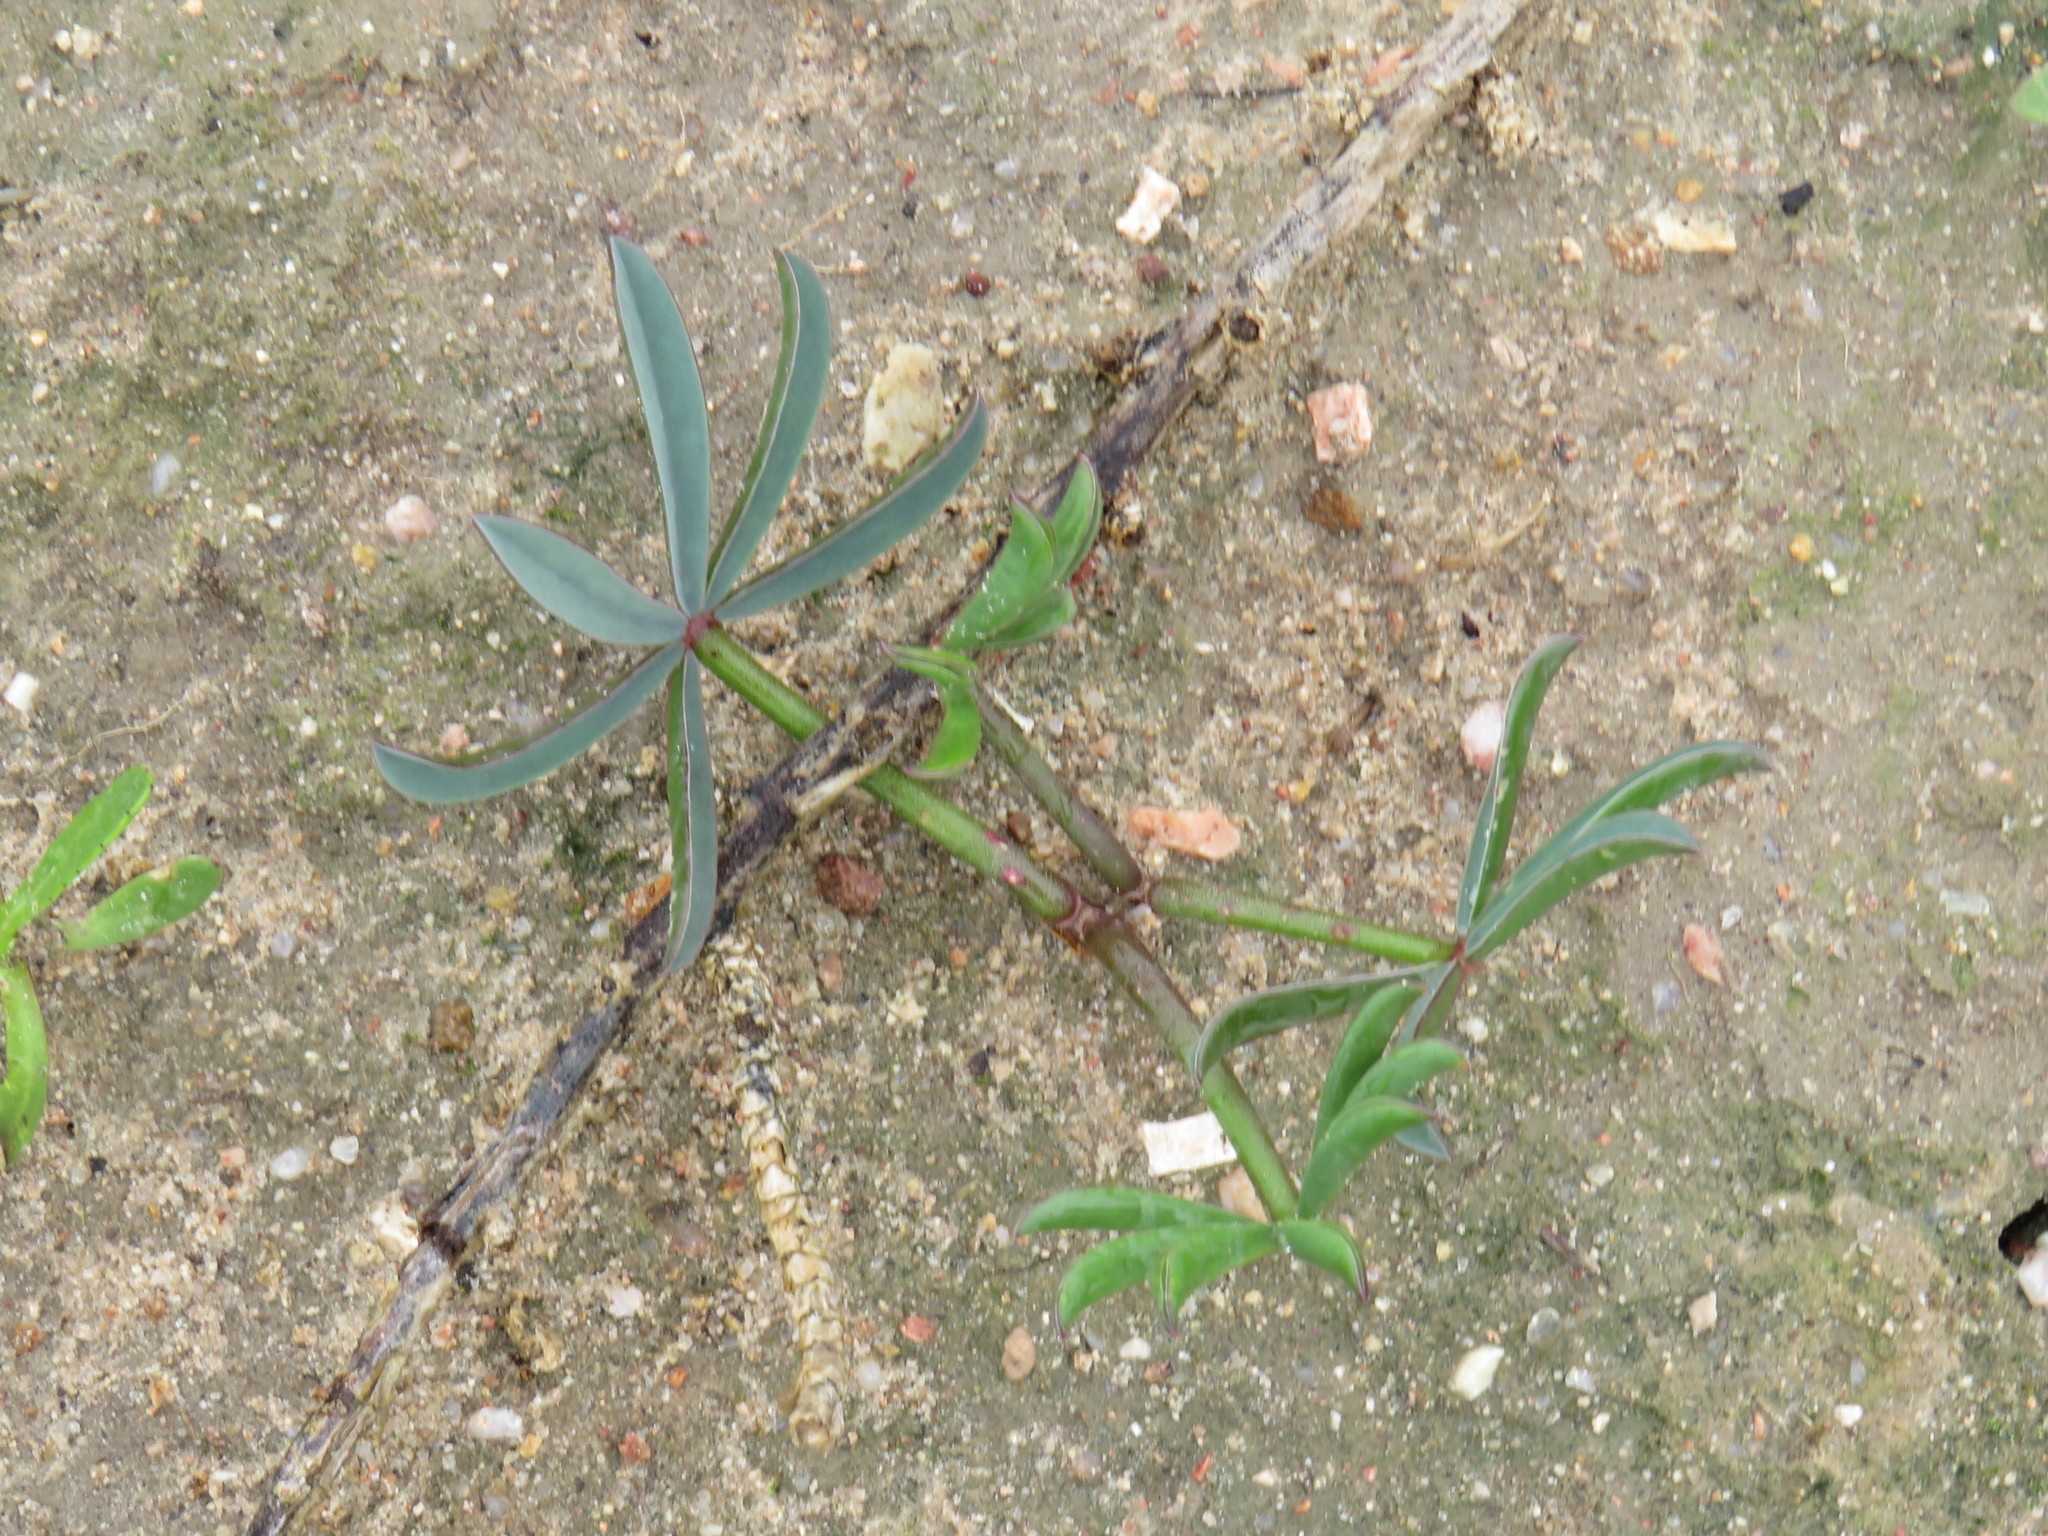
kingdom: Plantae
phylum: Tracheophyta
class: Magnoliopsida
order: Oxalidales
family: Oxalidaceae
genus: Oxalis
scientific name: Oxalis flava
